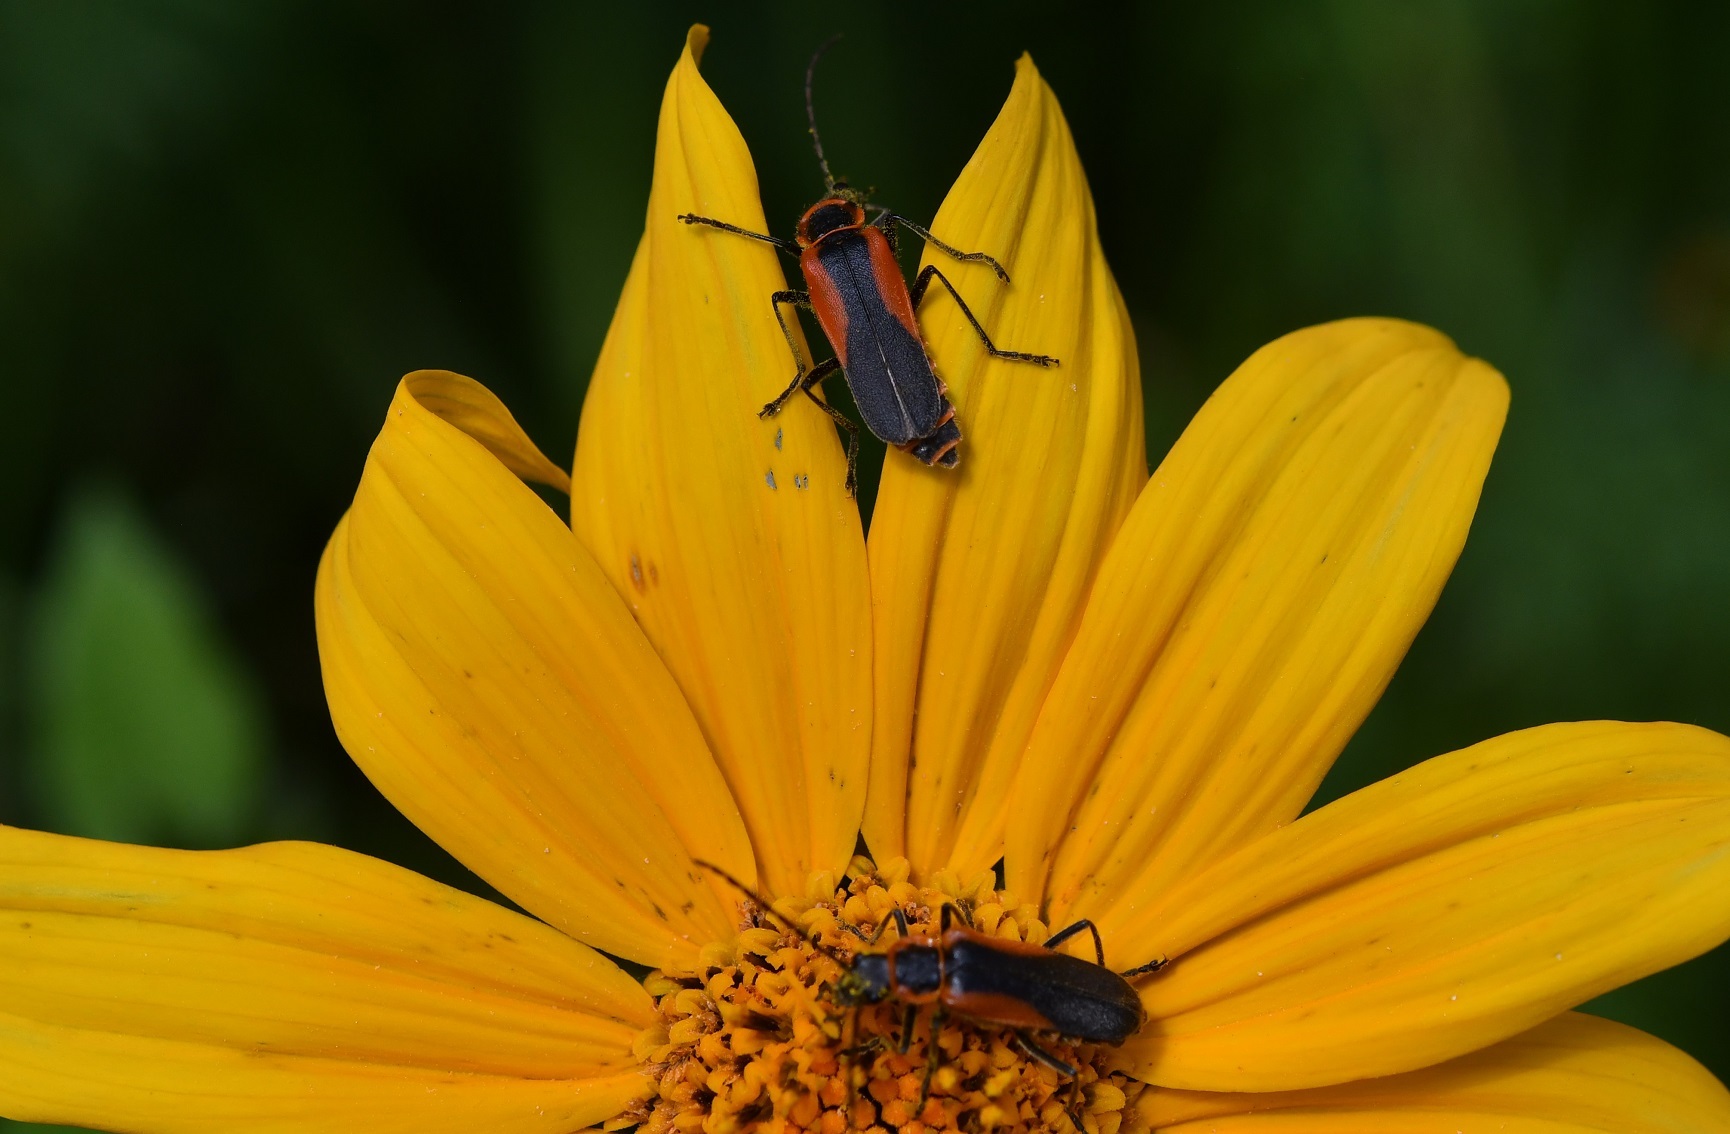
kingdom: Animalia
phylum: Arthropoda
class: Insecta
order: Coleoptera
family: Cantharidae
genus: Chauliognathus
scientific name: Chauliognathus limbicollis
